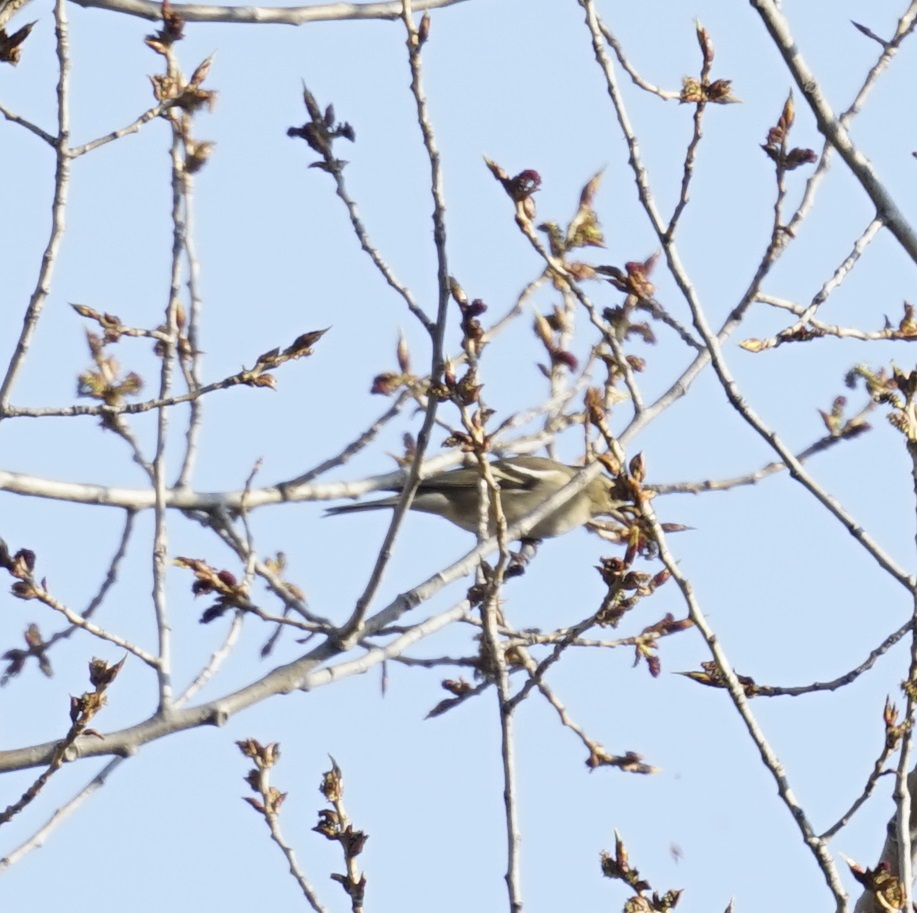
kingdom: Animalia
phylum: Chordata
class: Aves
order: Passeriformes
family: Fringillidae
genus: Fringilla
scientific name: Fringilla coelebs
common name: Common chaffinch
